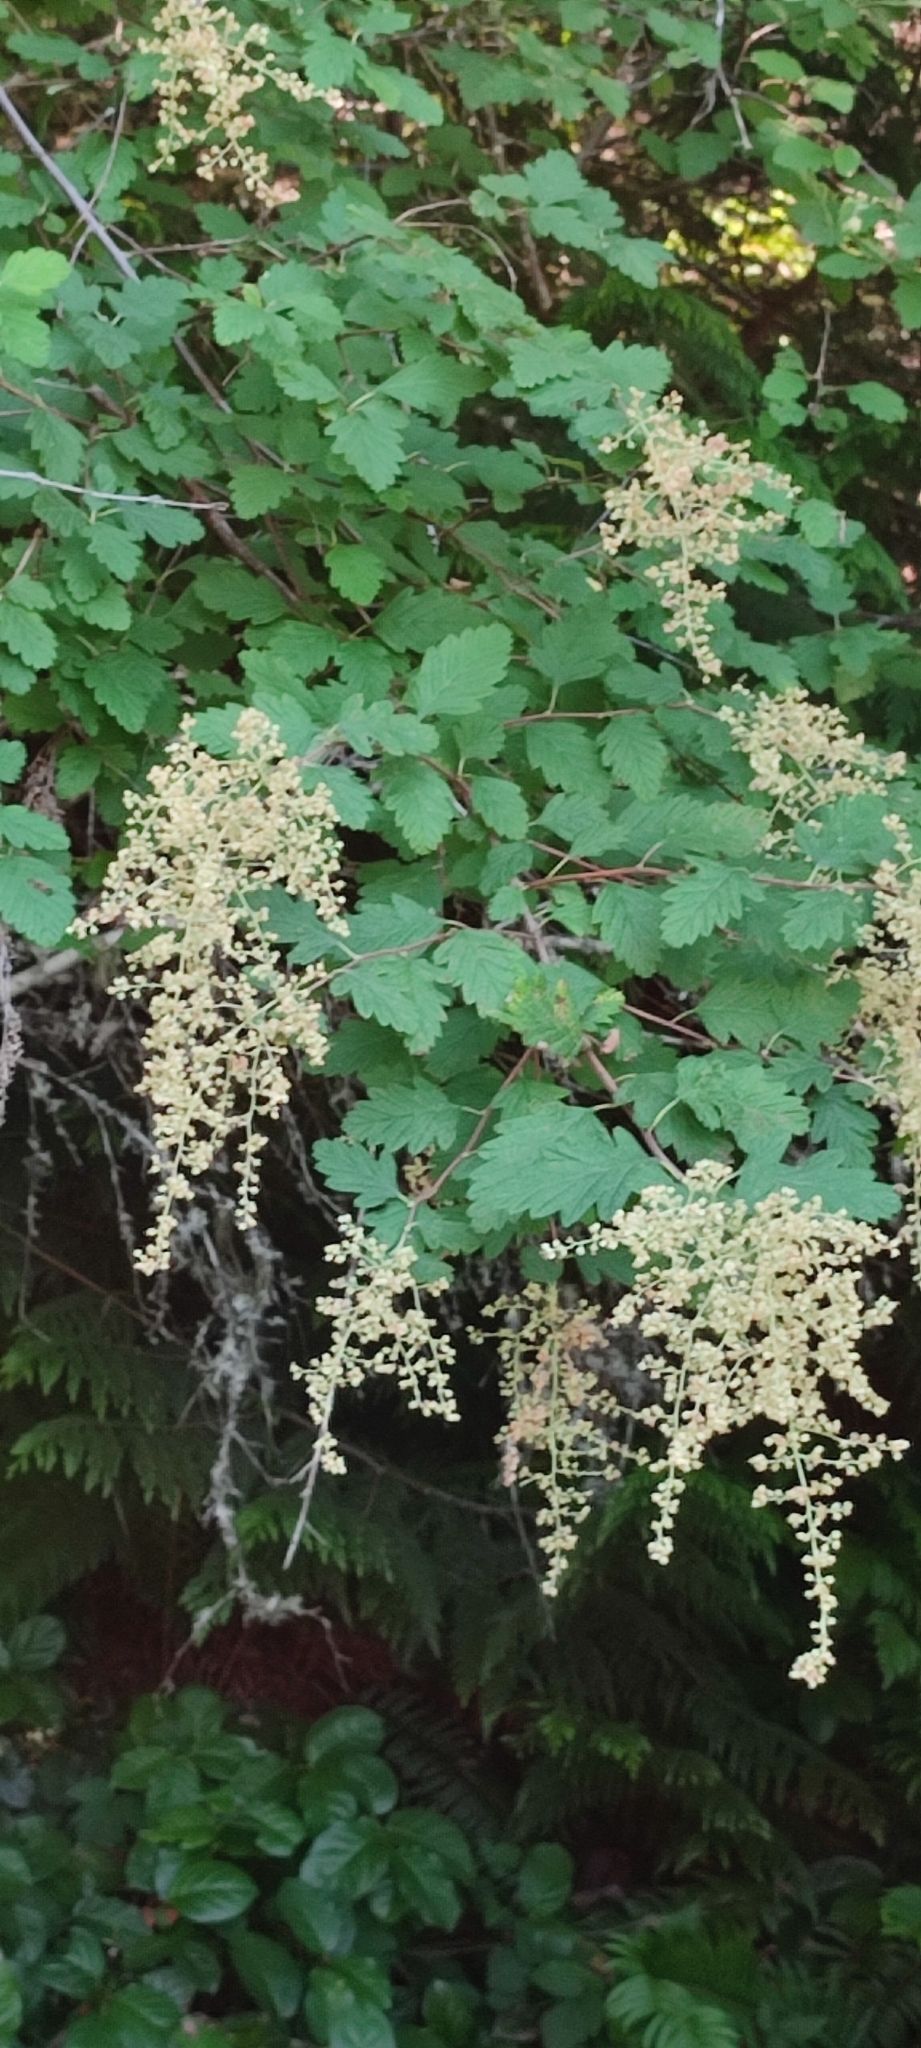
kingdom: Plantae
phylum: Tracheophyta
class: Magnoliopsida
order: Rosales
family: Rosaceae
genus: Holodiscus
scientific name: Holodiscus discolor
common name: Oceanspray
